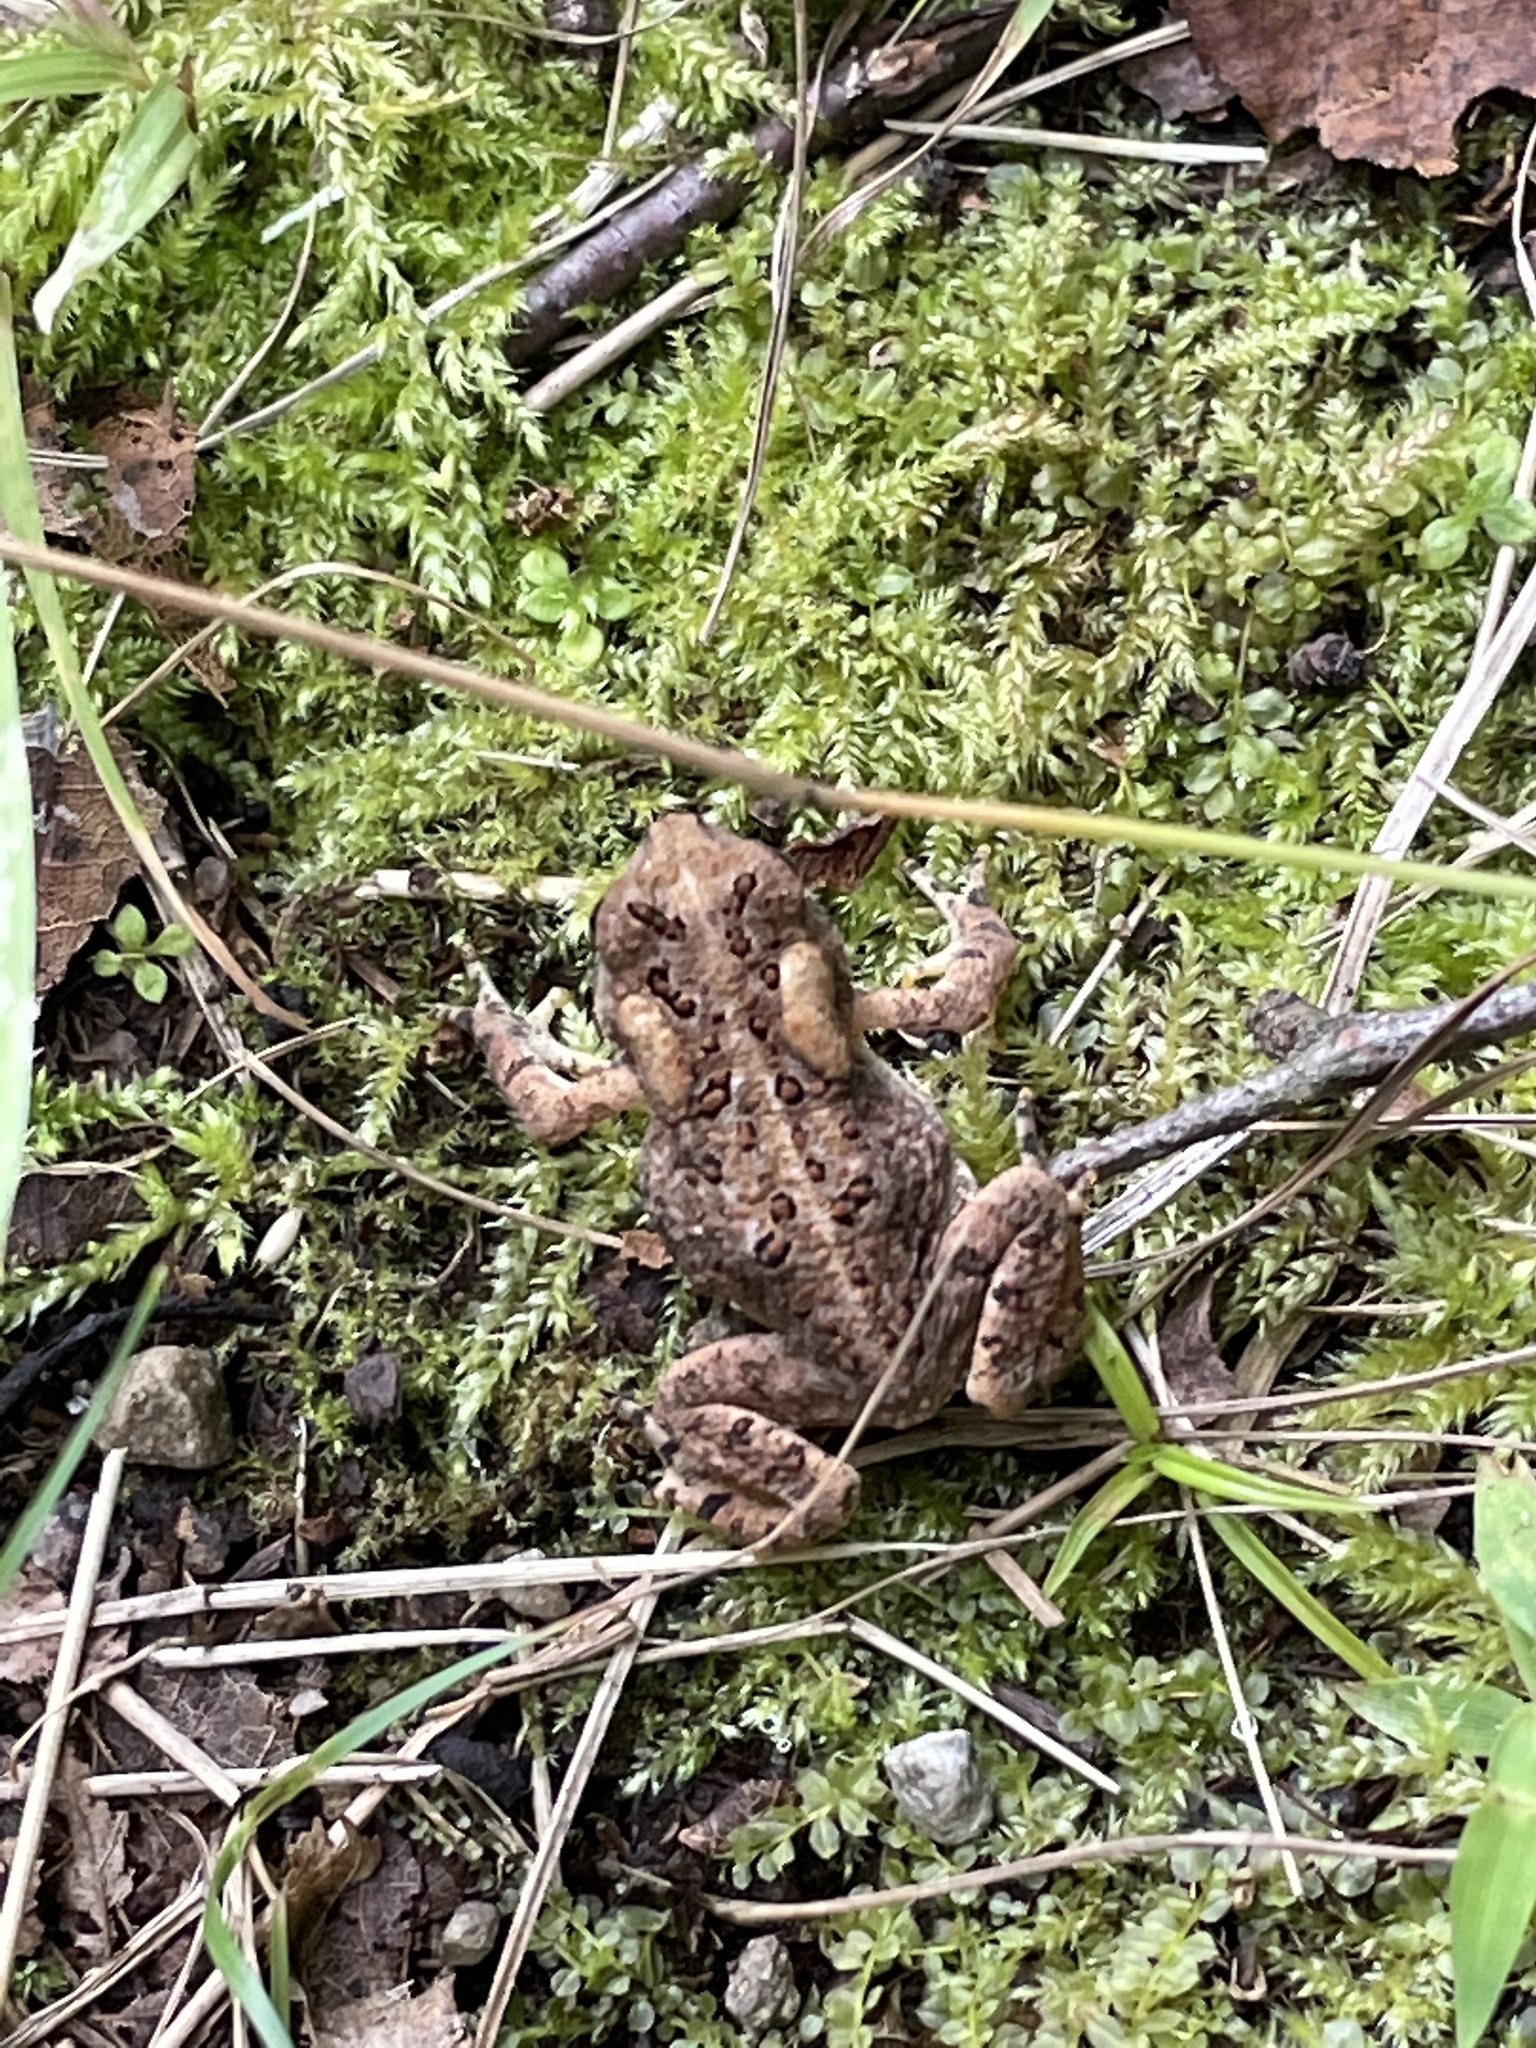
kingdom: Animalia
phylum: Chordata
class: Amphibia
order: Anura
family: Bufonidae
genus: Anaxyrus
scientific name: Anaxyrus americanus
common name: American toad
